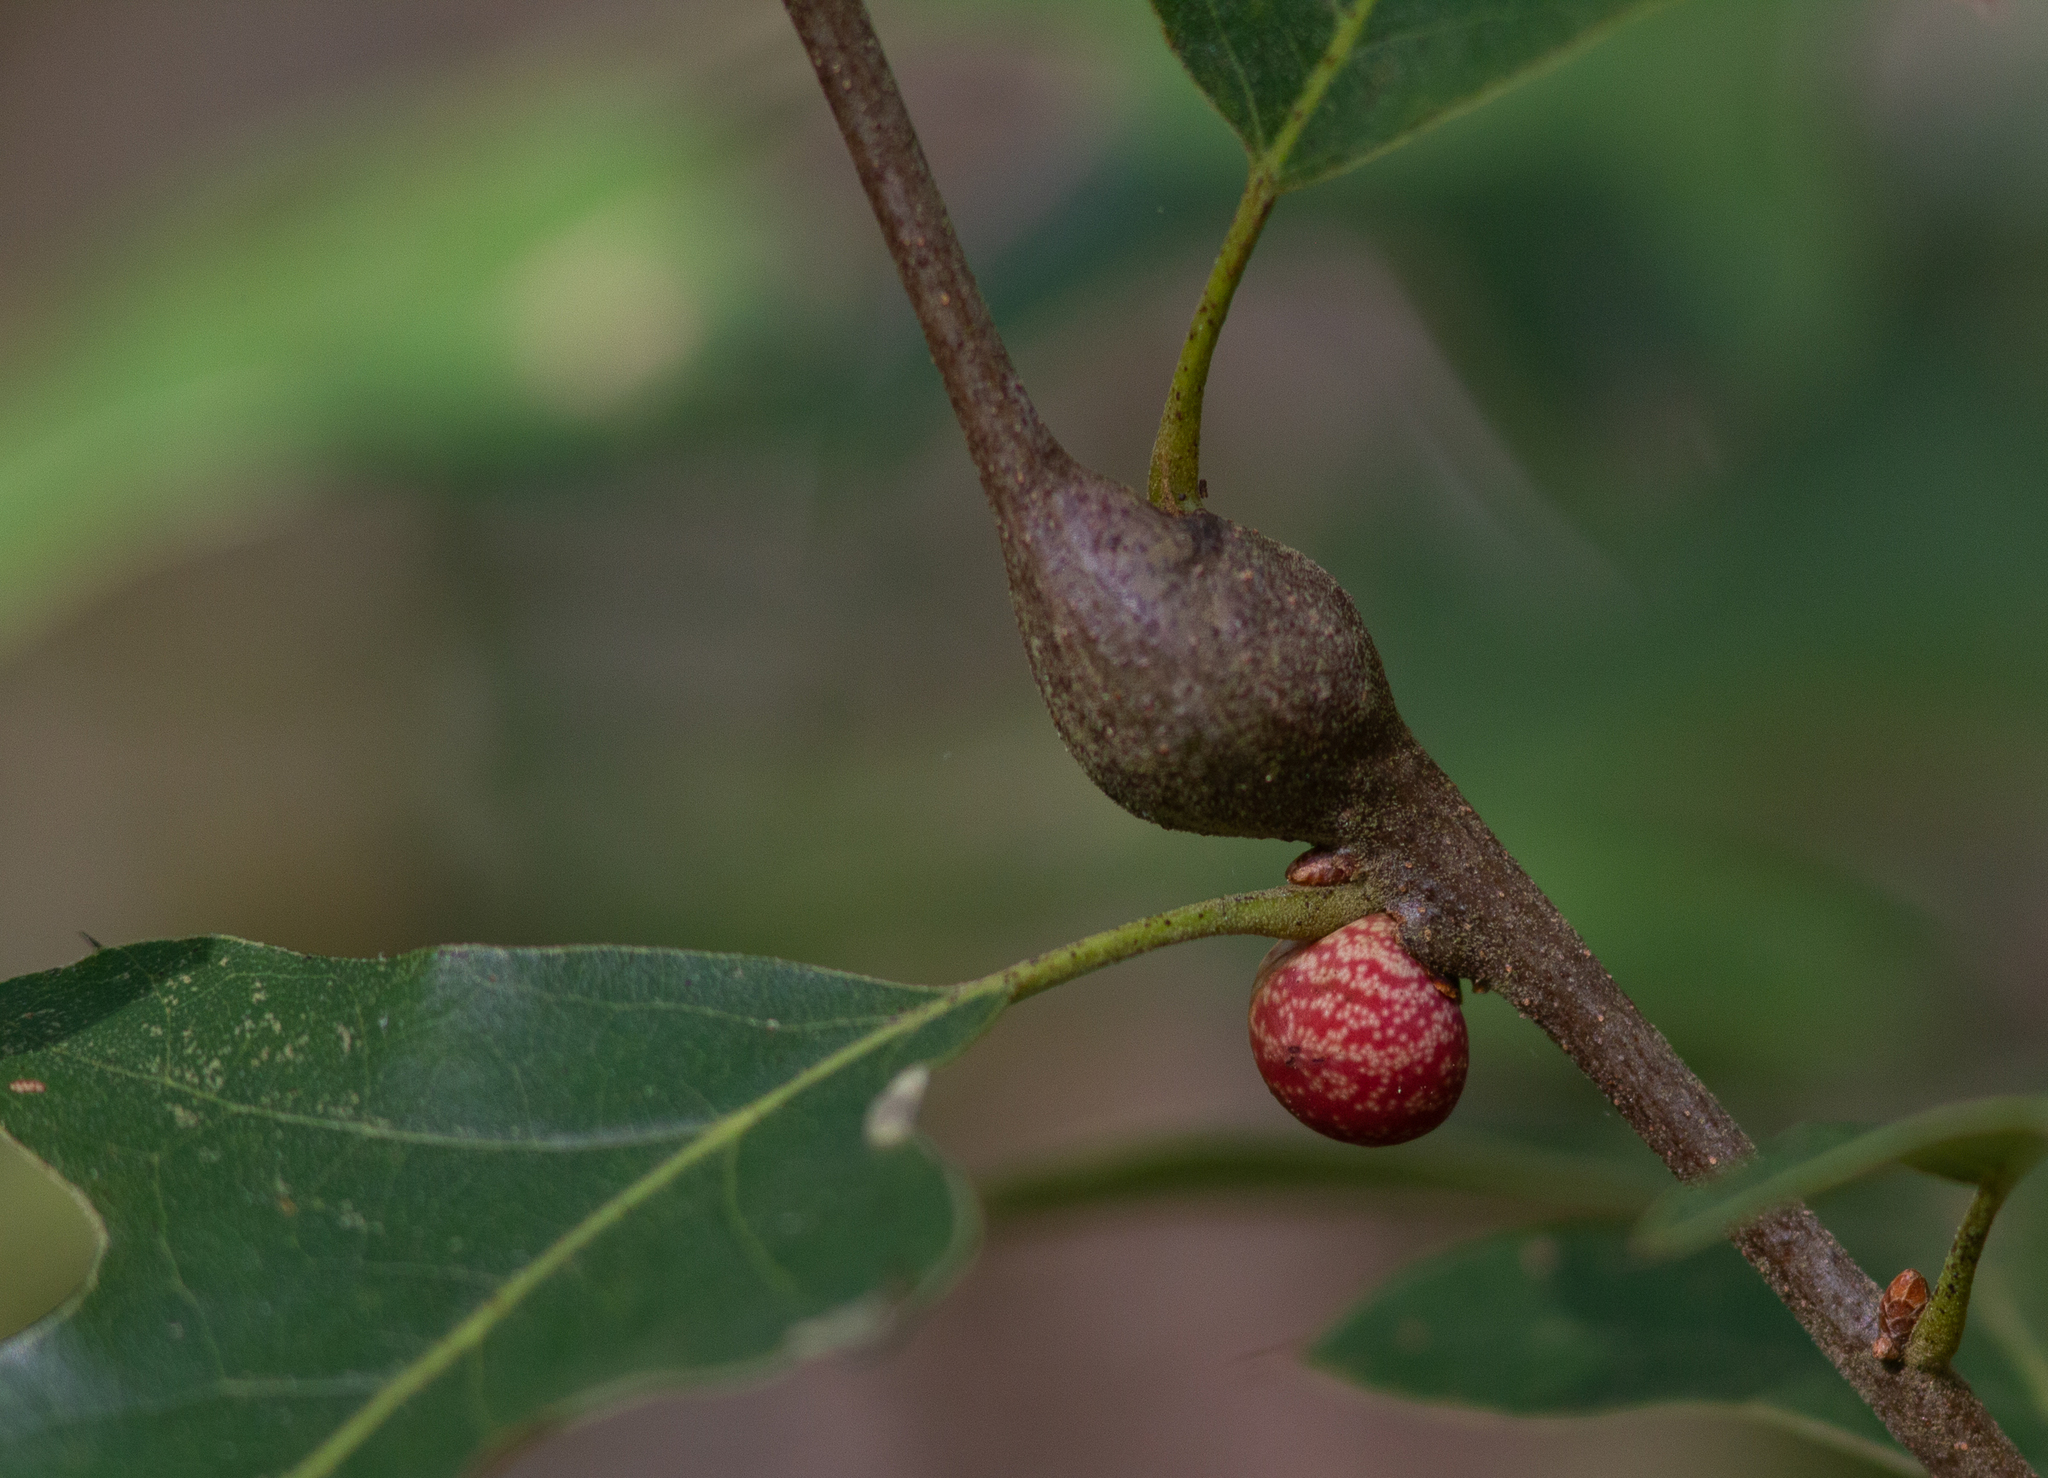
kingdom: Animalia
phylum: Arthropoda
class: Insecta
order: Hymenoptera
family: Cynipidae
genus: Kokkocynips
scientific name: Kokkocynips imbricariae
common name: Banded bullet gall wasp
